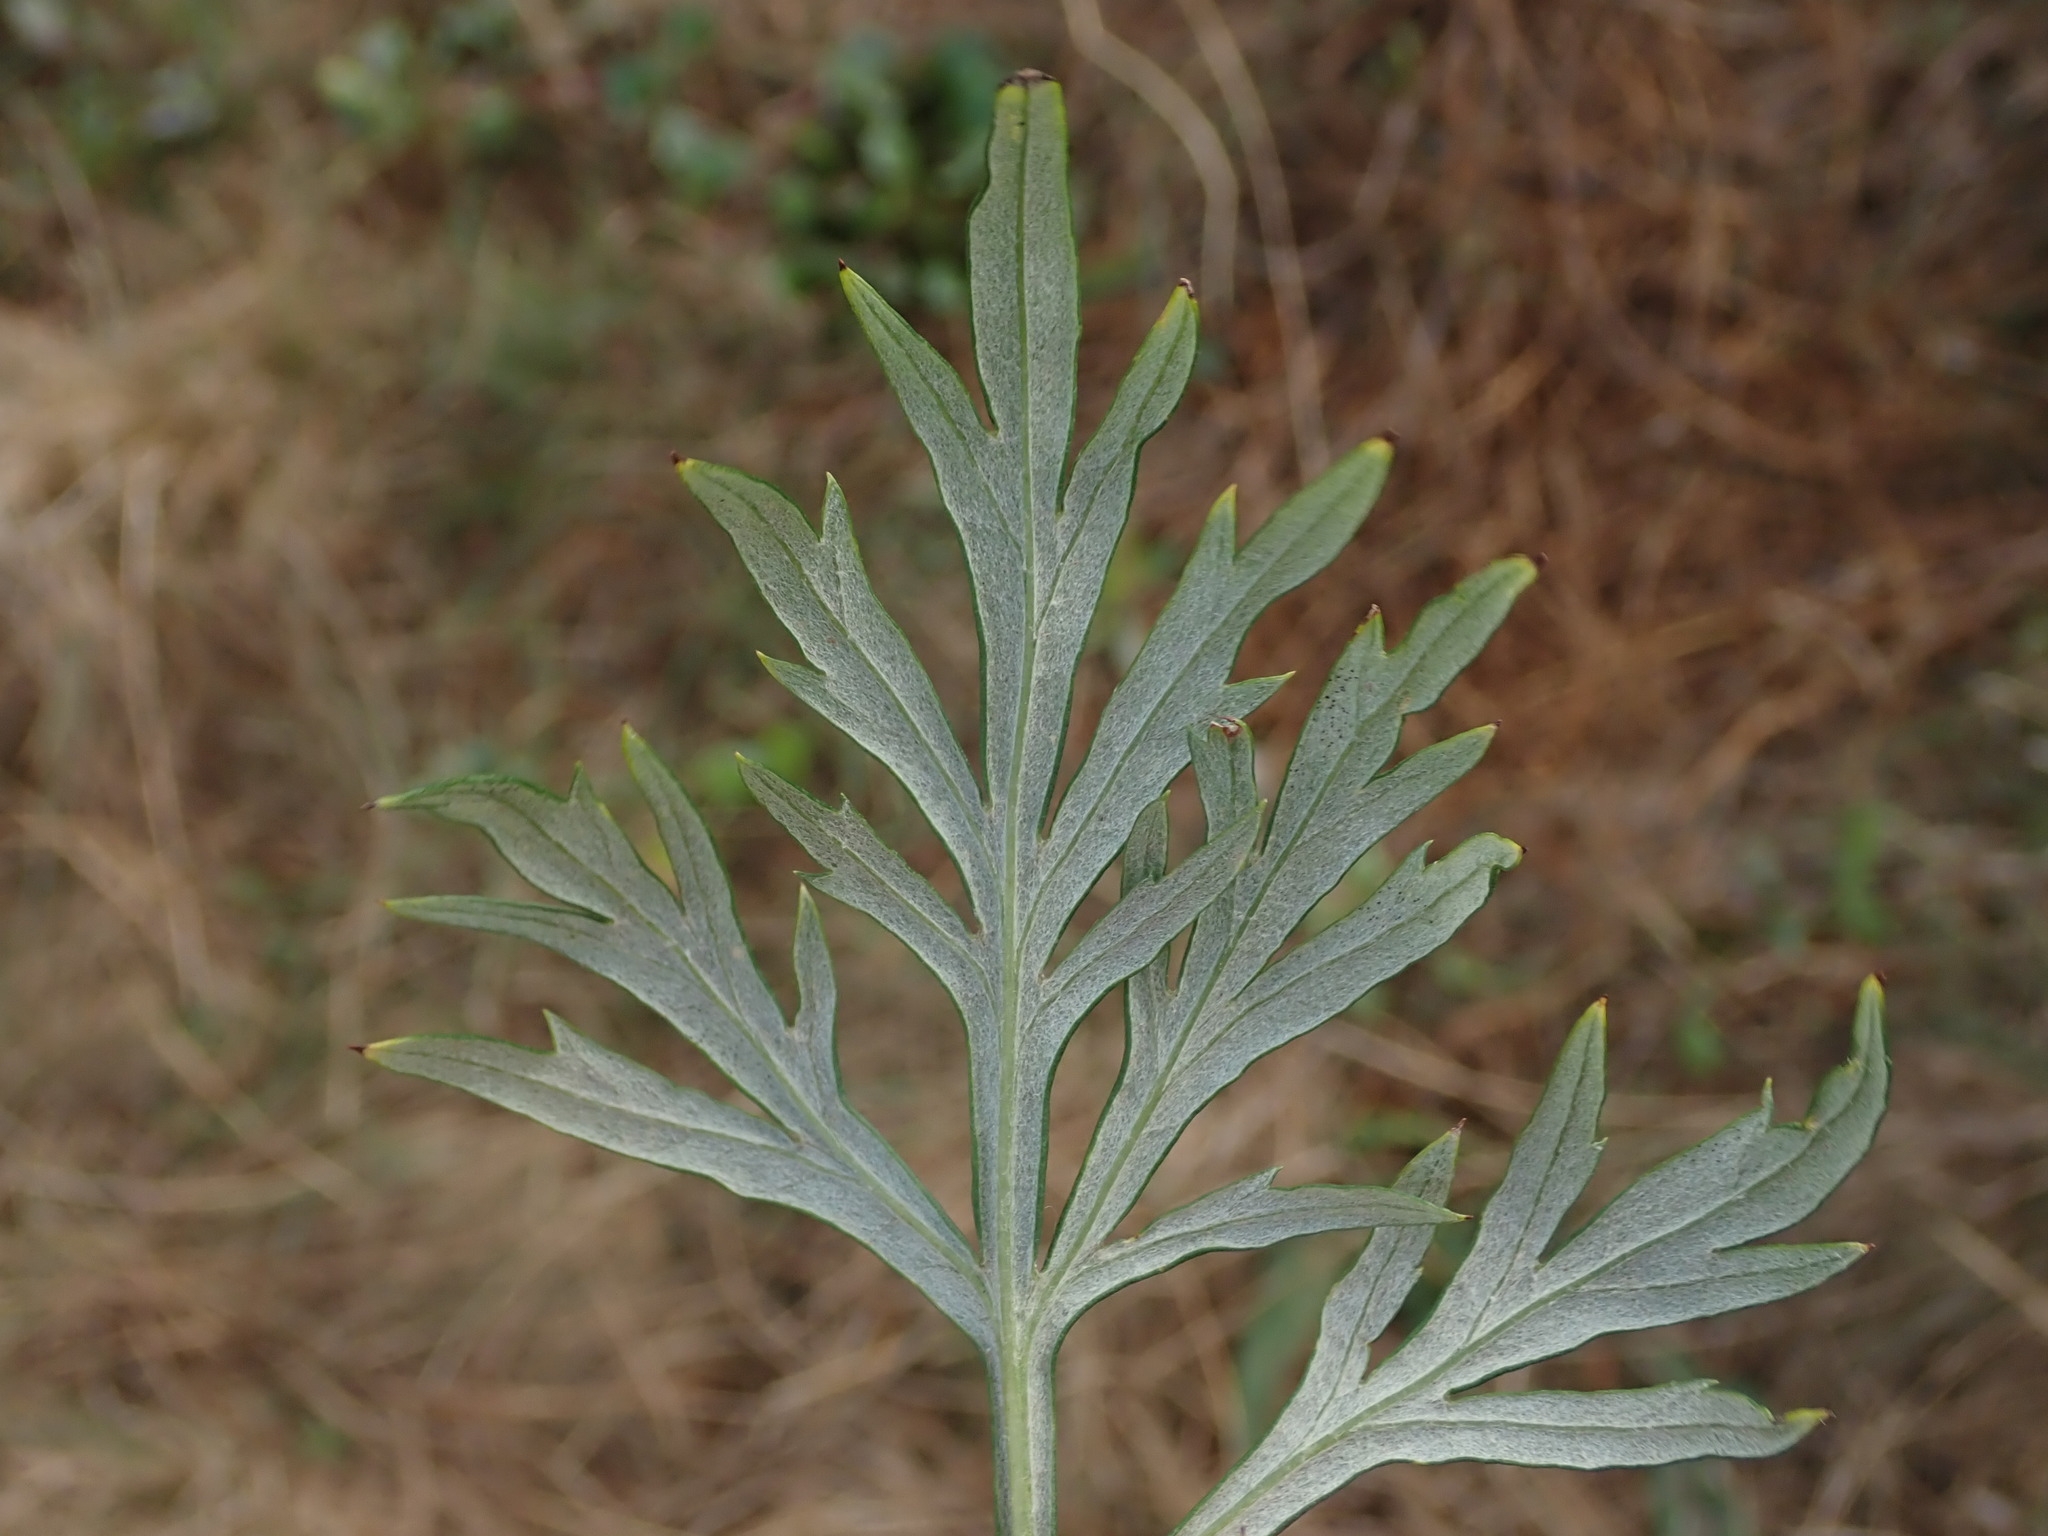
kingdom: Plantae
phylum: Tracheophyta
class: Magnoliopsida
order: Asterales
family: Asteraceae
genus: Artemisia
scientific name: Artemisia vulgaris
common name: Mugwort
